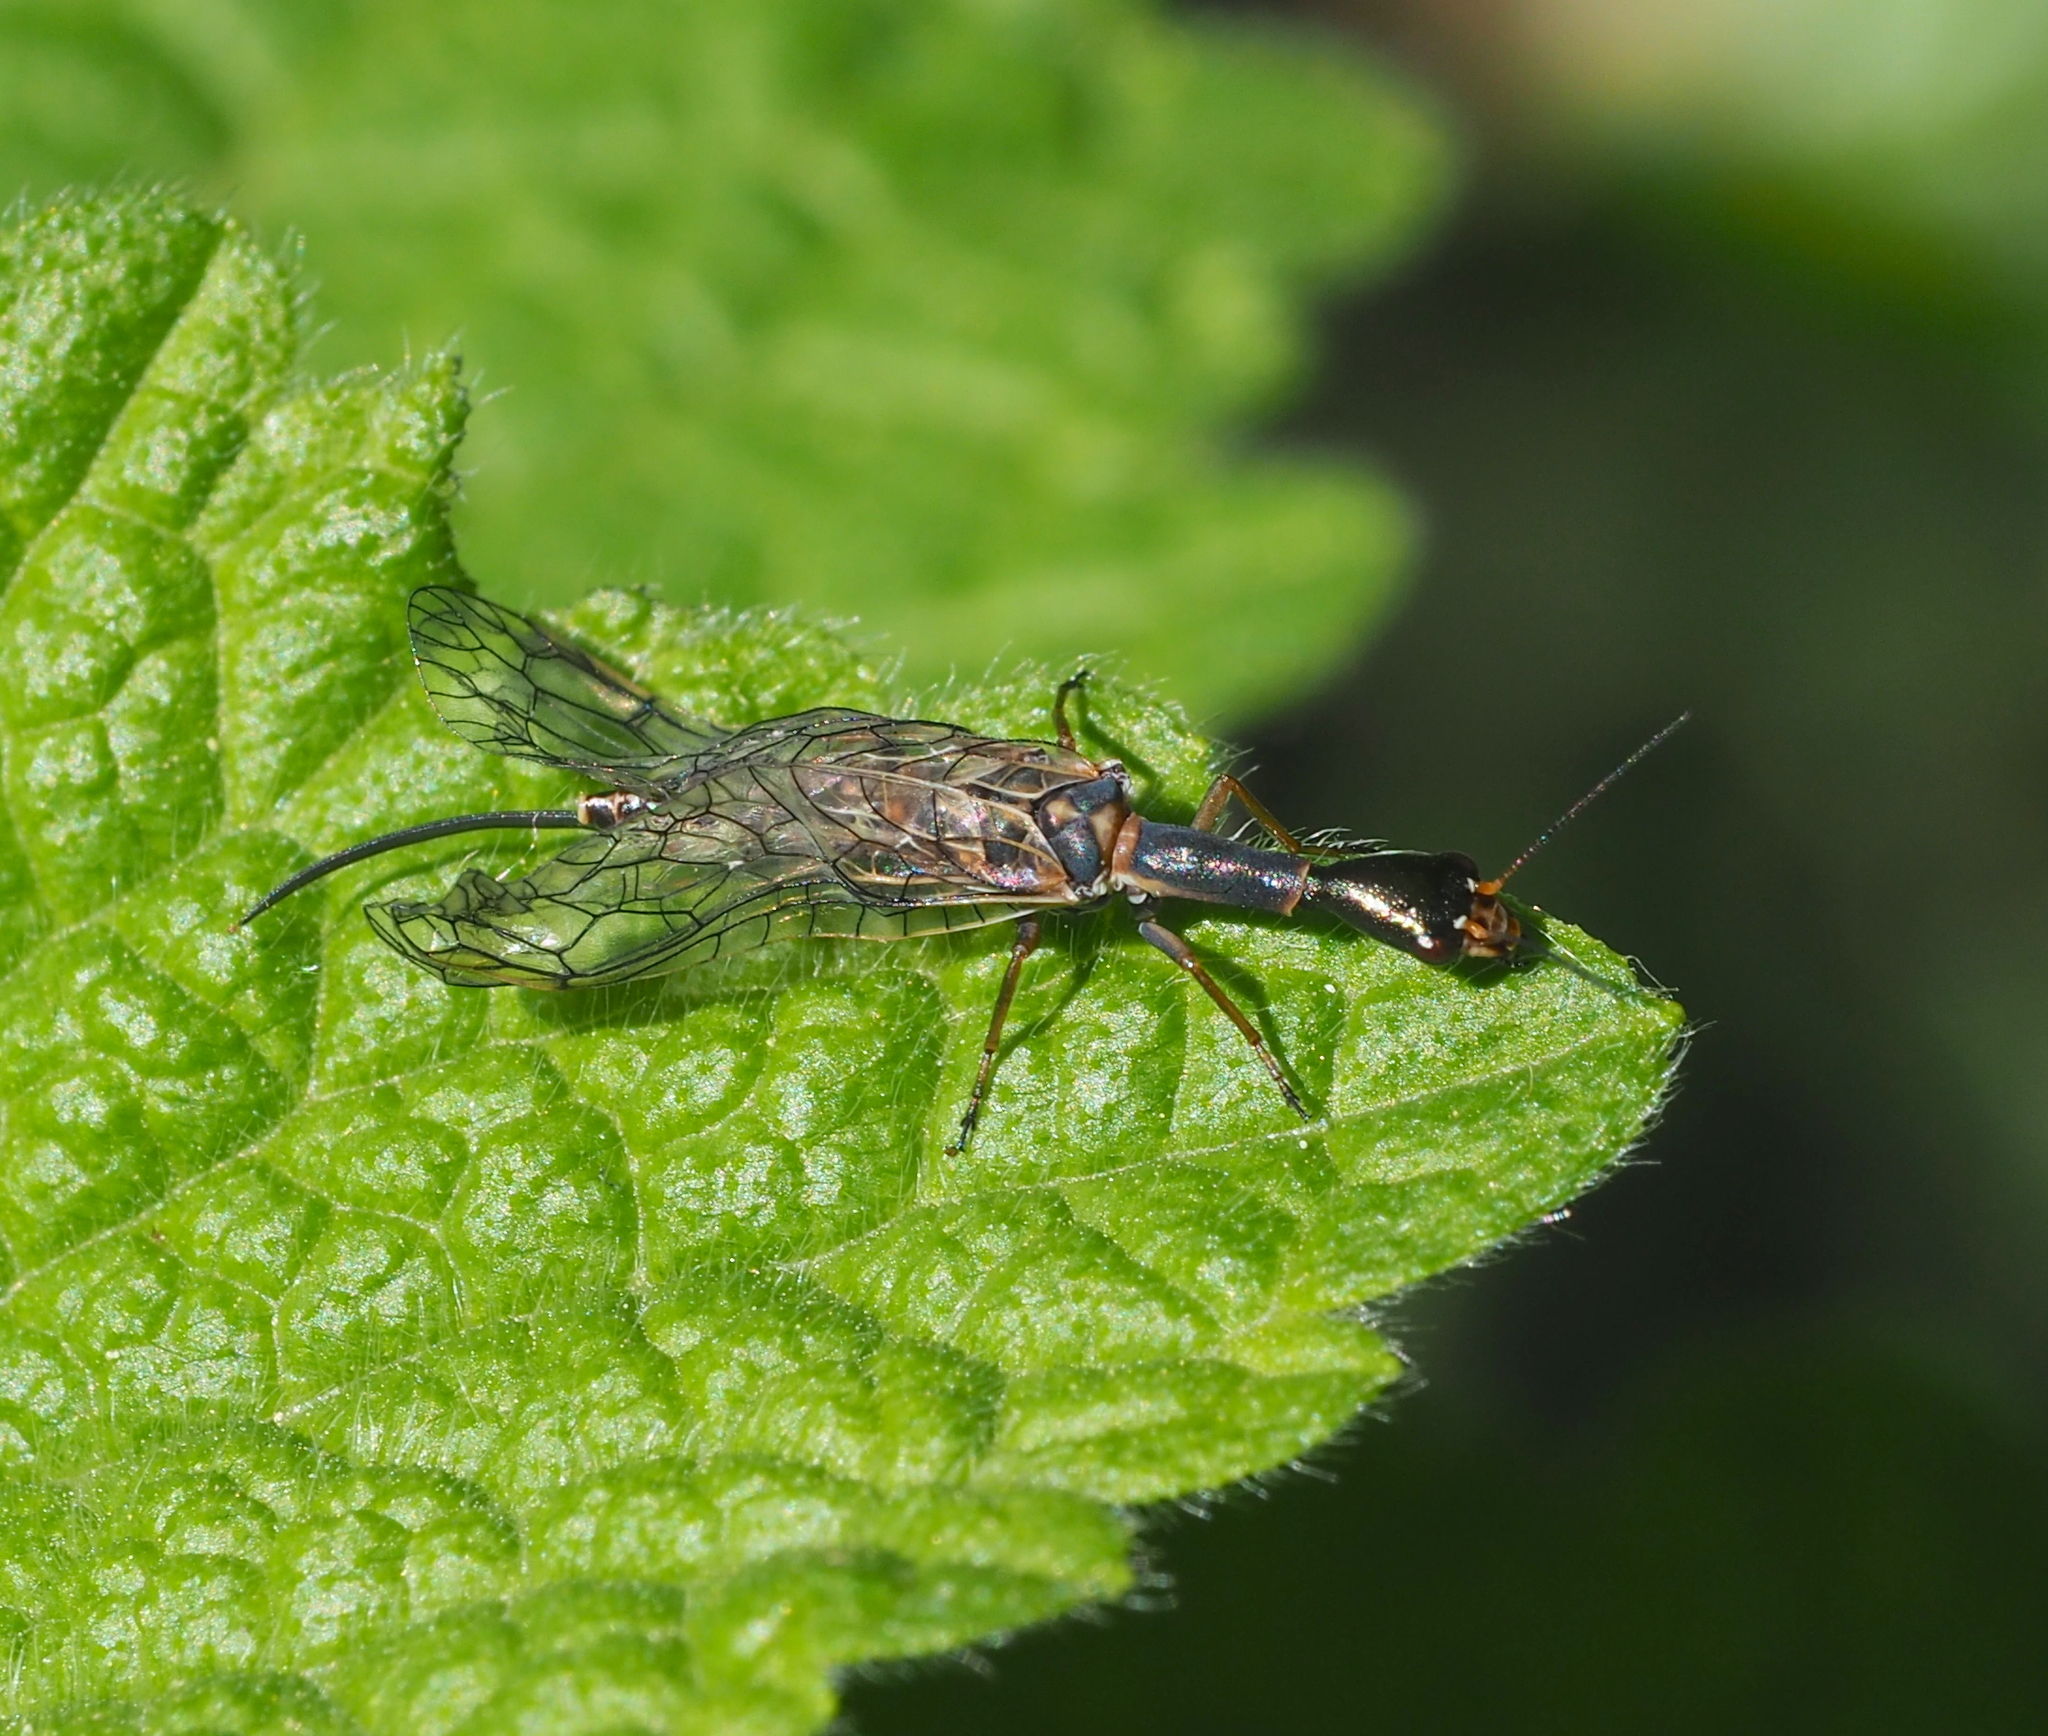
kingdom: Animalia
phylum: Arthropoda
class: Insecta
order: Raphidioptera
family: Raphidiidae
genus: Xanthostigma
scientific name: Xanthostigma xanthostigma
